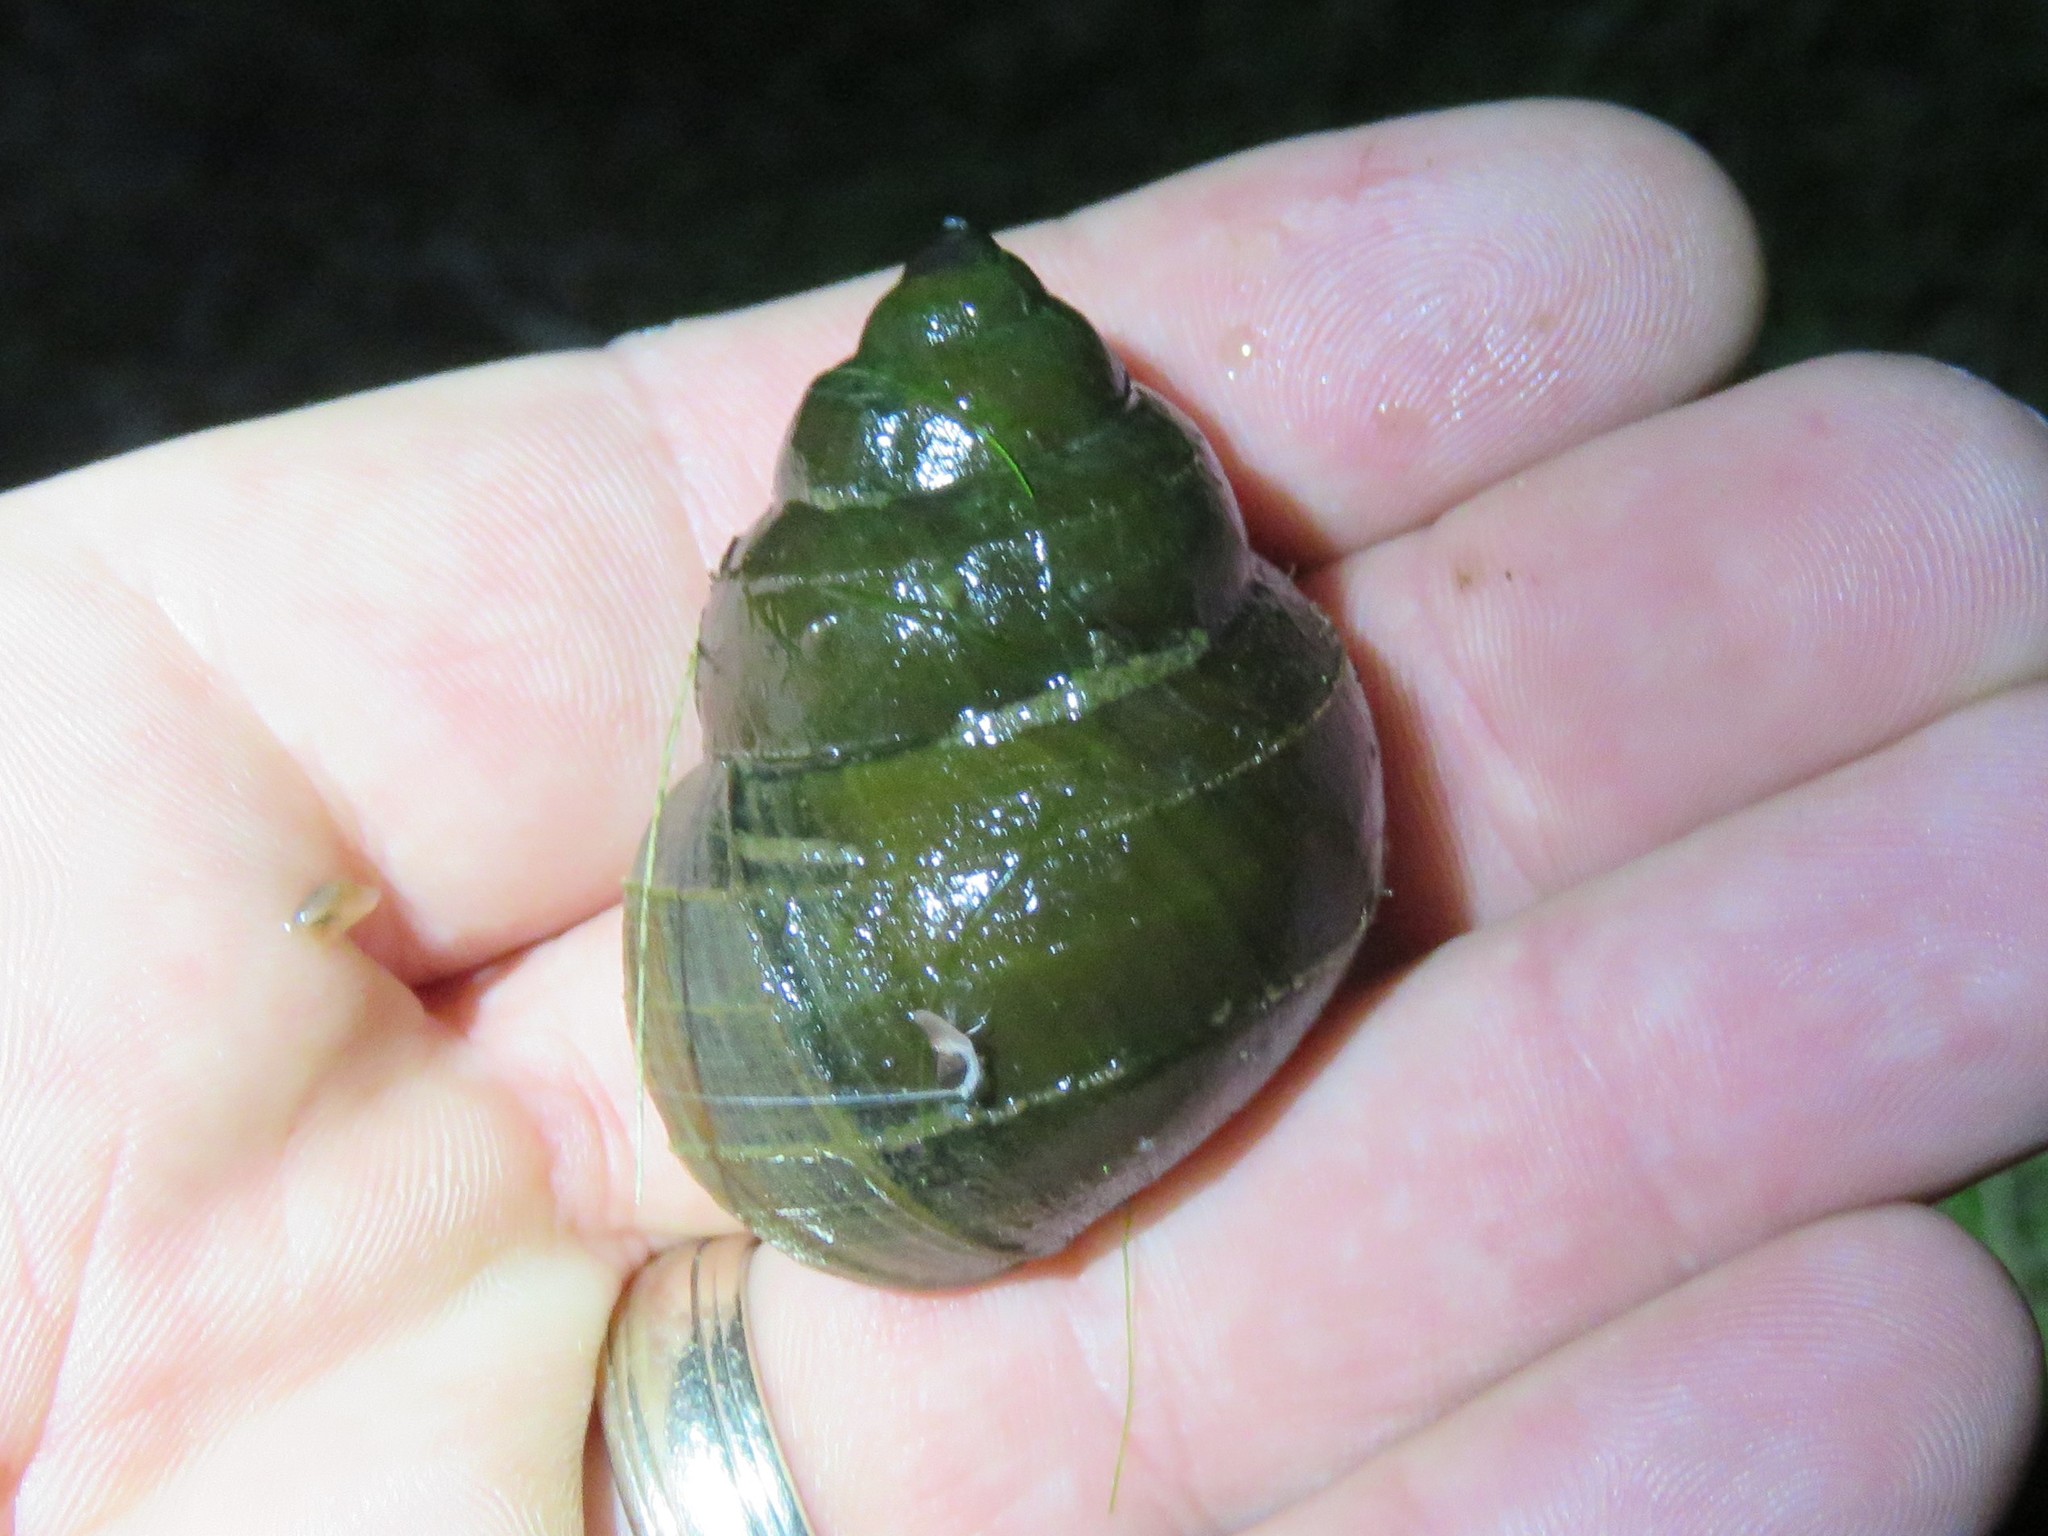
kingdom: Animalia
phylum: Mollusca
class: Gastropoda
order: Architaenioglossa
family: Viviparidae
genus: Cipangopaludina
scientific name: Cipangopaludina chinensis
